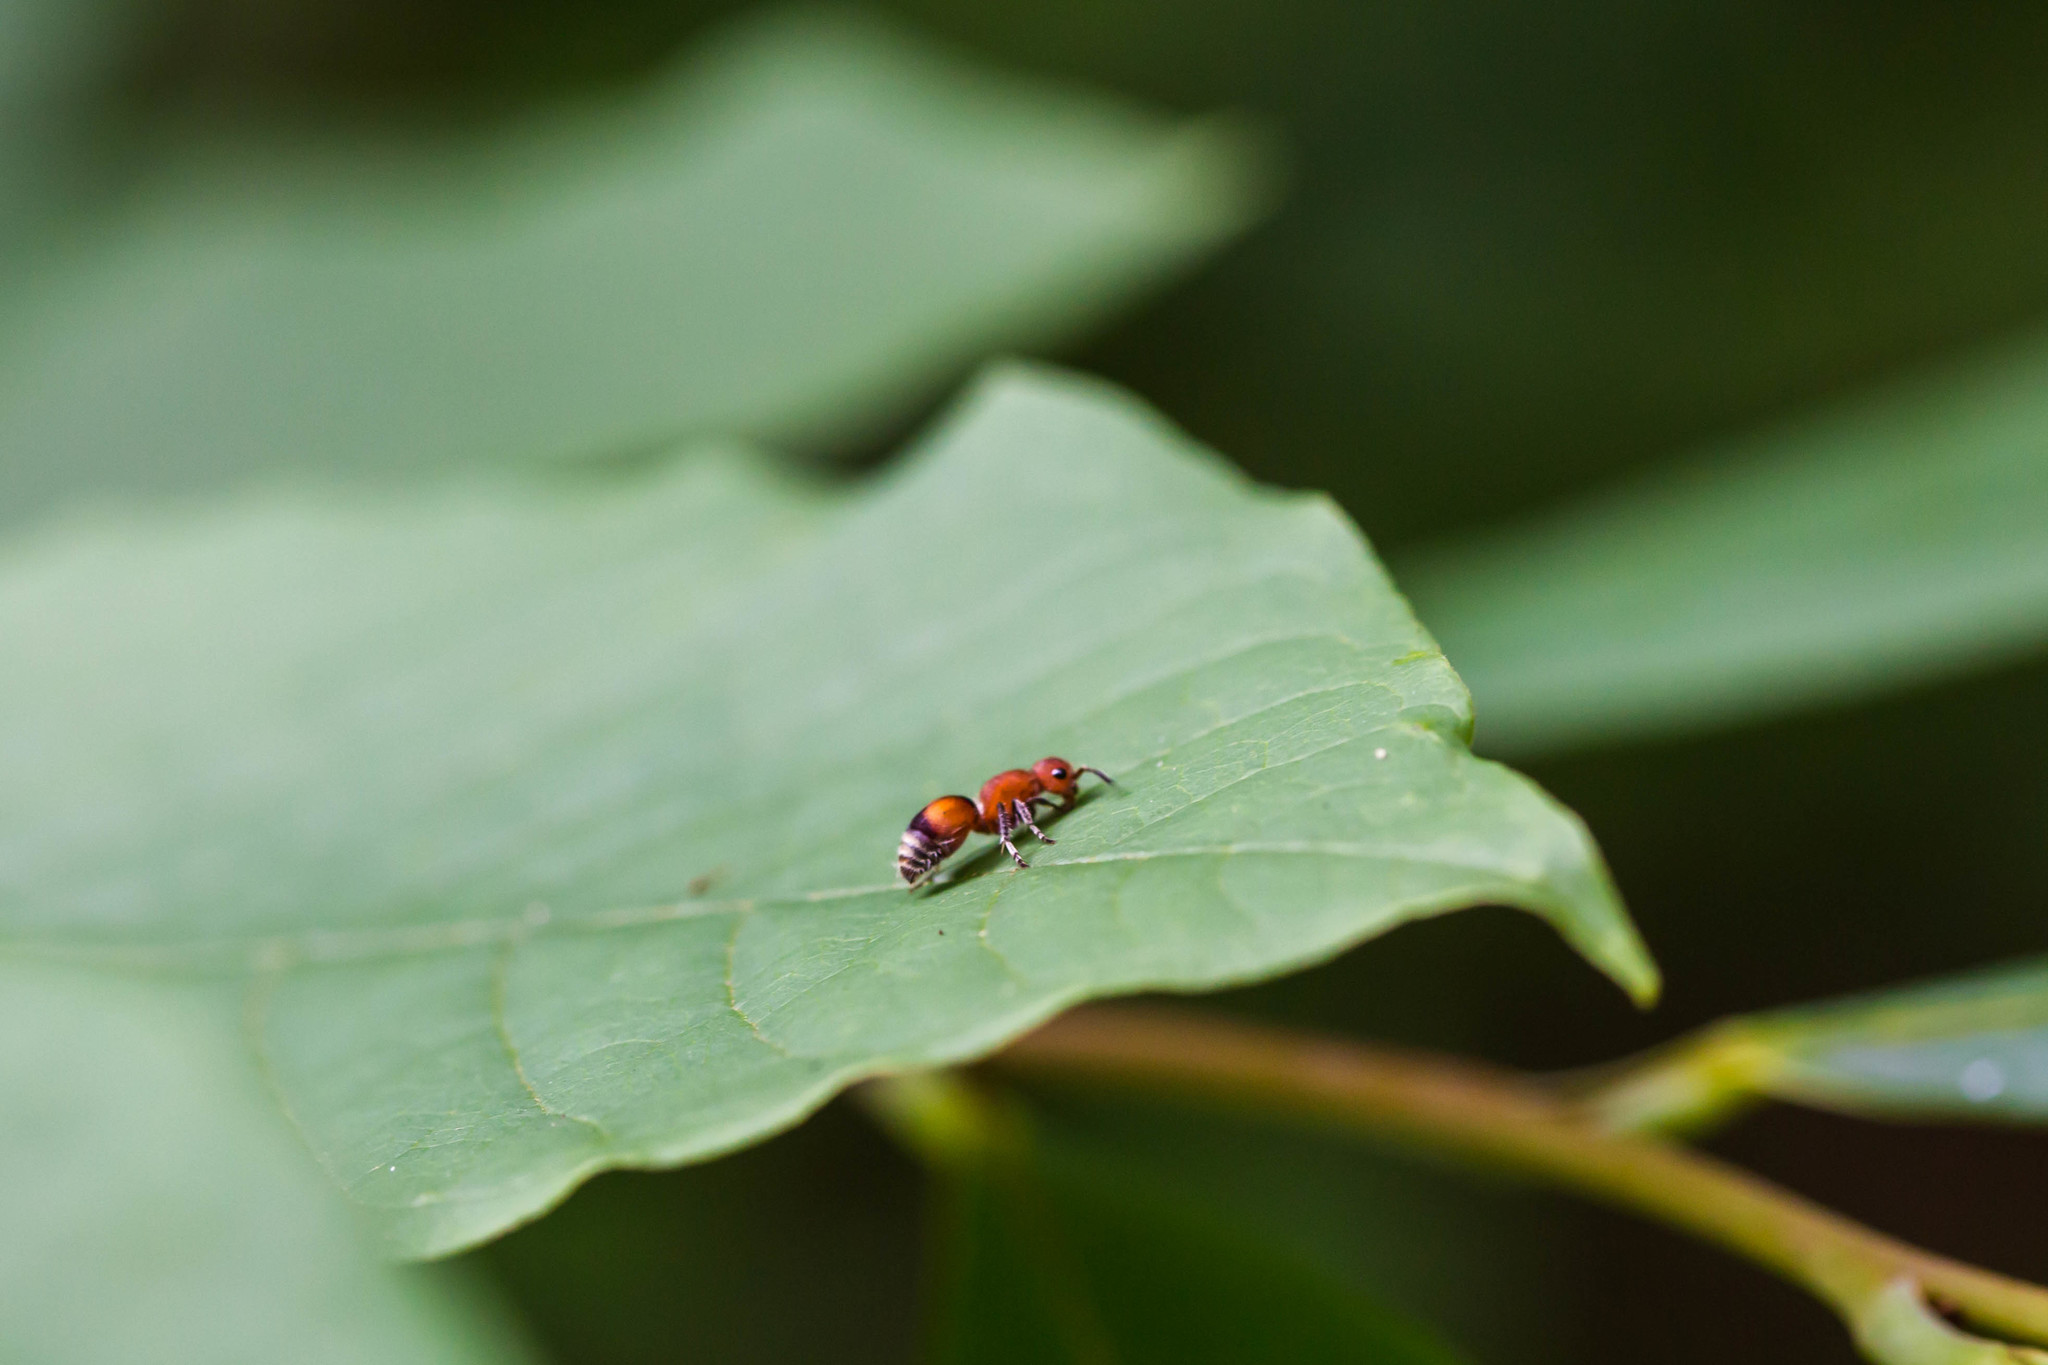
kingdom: Animalia
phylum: Arthropoda
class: Insecta
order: Hymenoptera
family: Mutillidae
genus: Pseudomethoca
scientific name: Pseudomethoca
